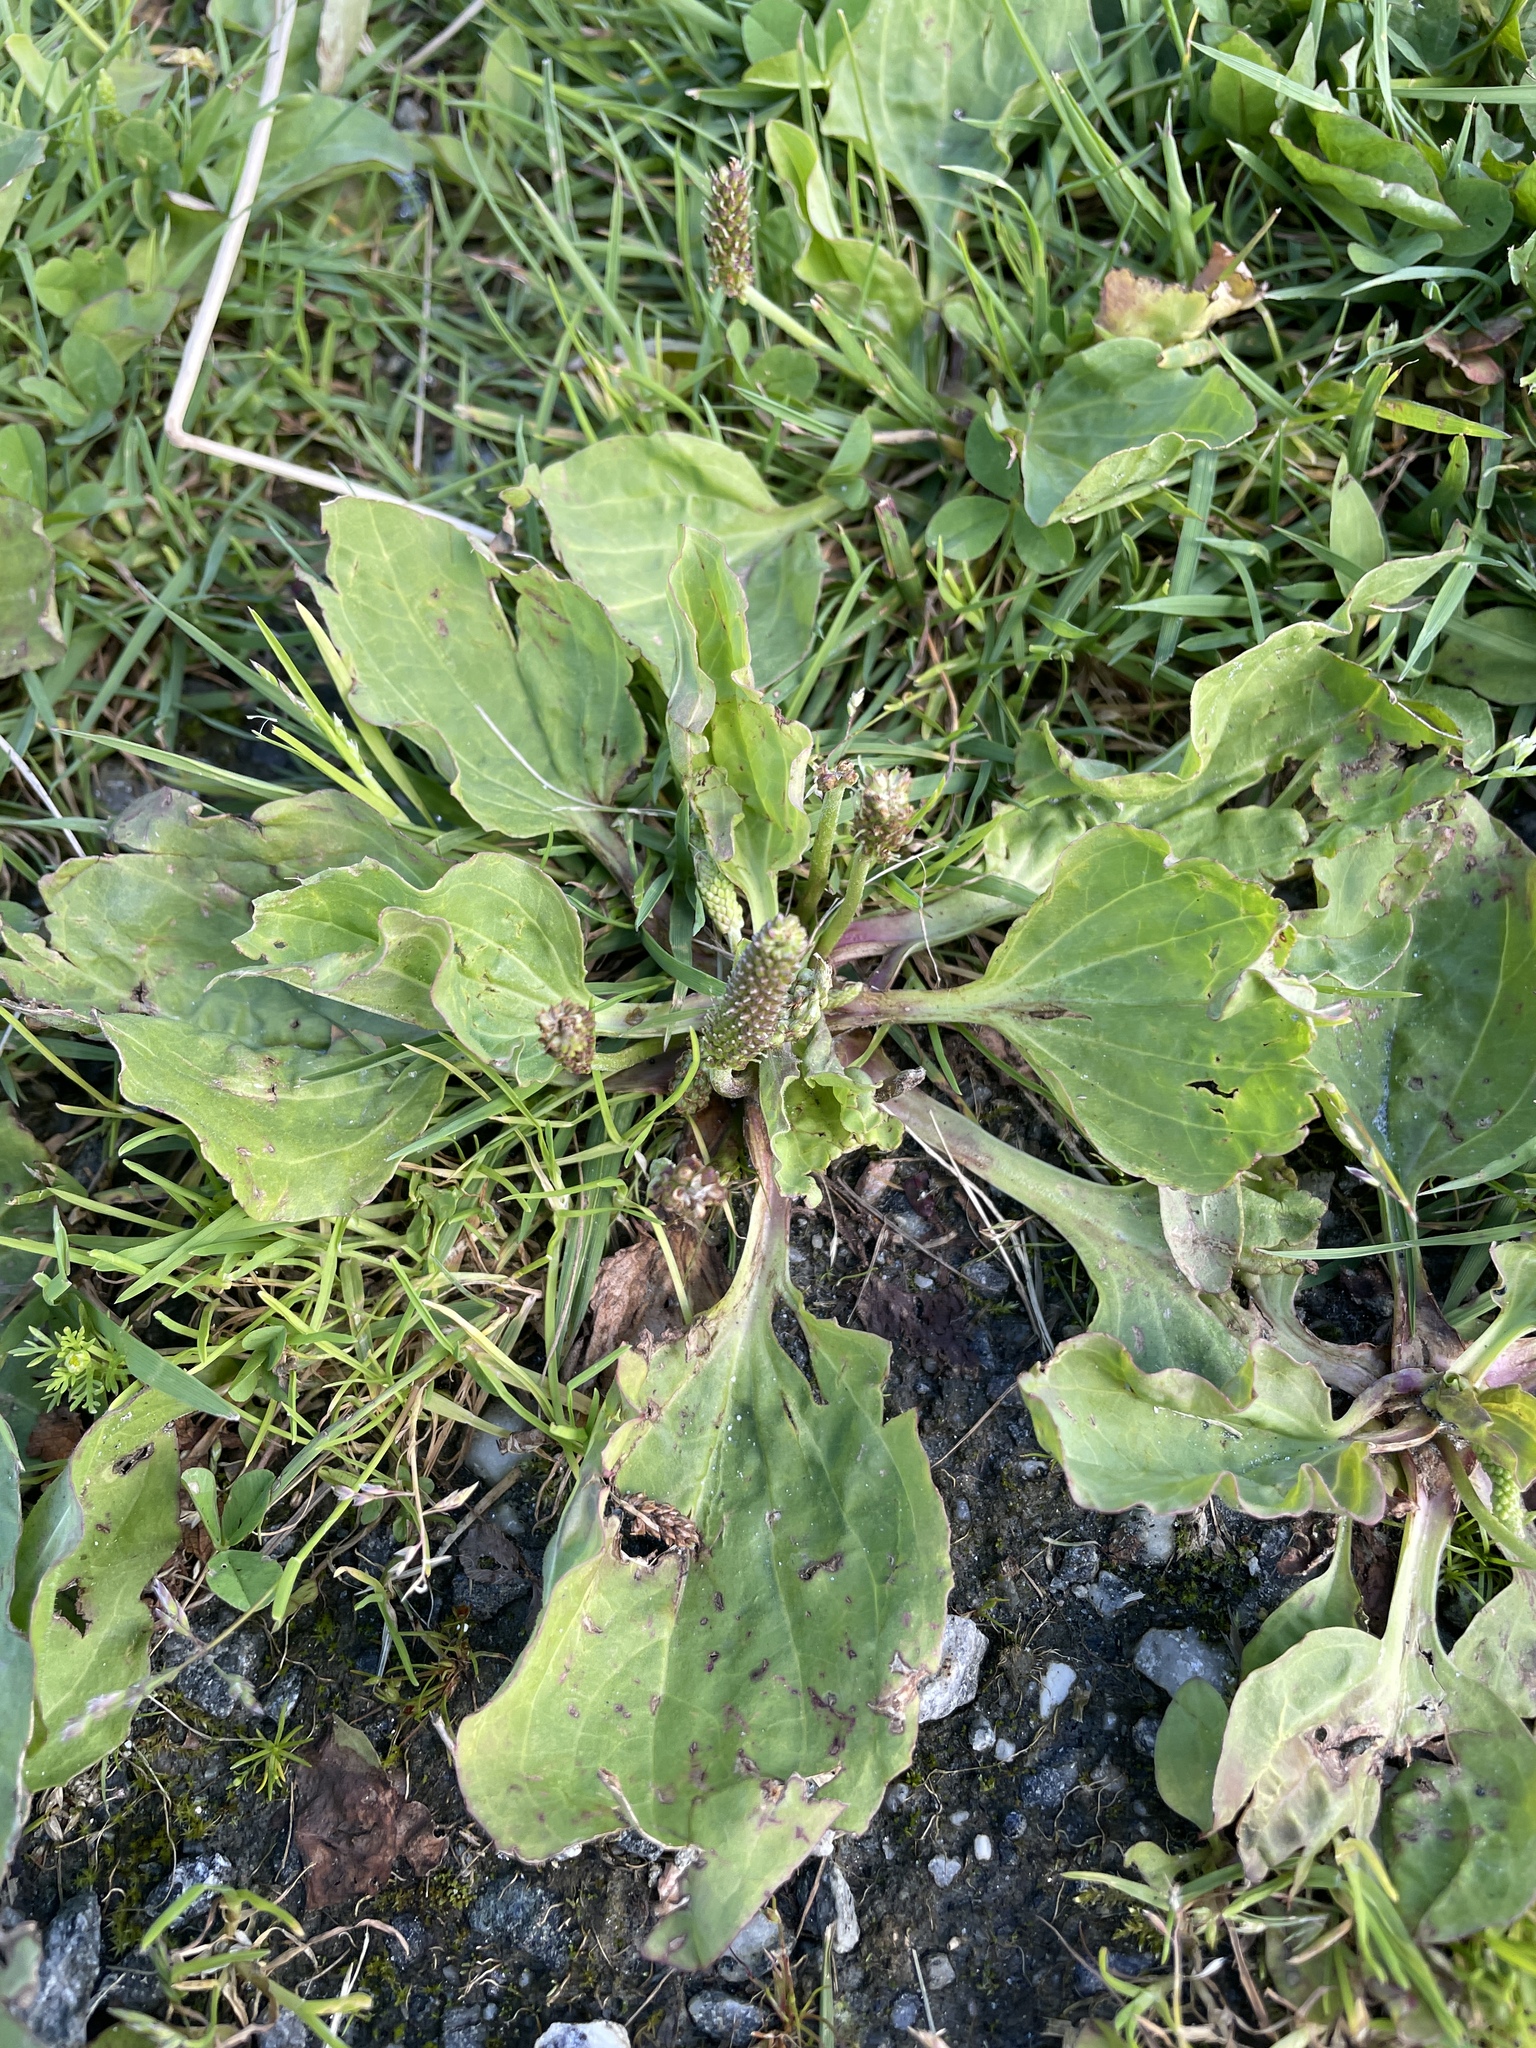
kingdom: Plantae
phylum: Tracheophyta
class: Magnoliopsida
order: Lamiales
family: Plantaginaceae
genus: Plantago
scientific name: Plantago major
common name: Common plantain
